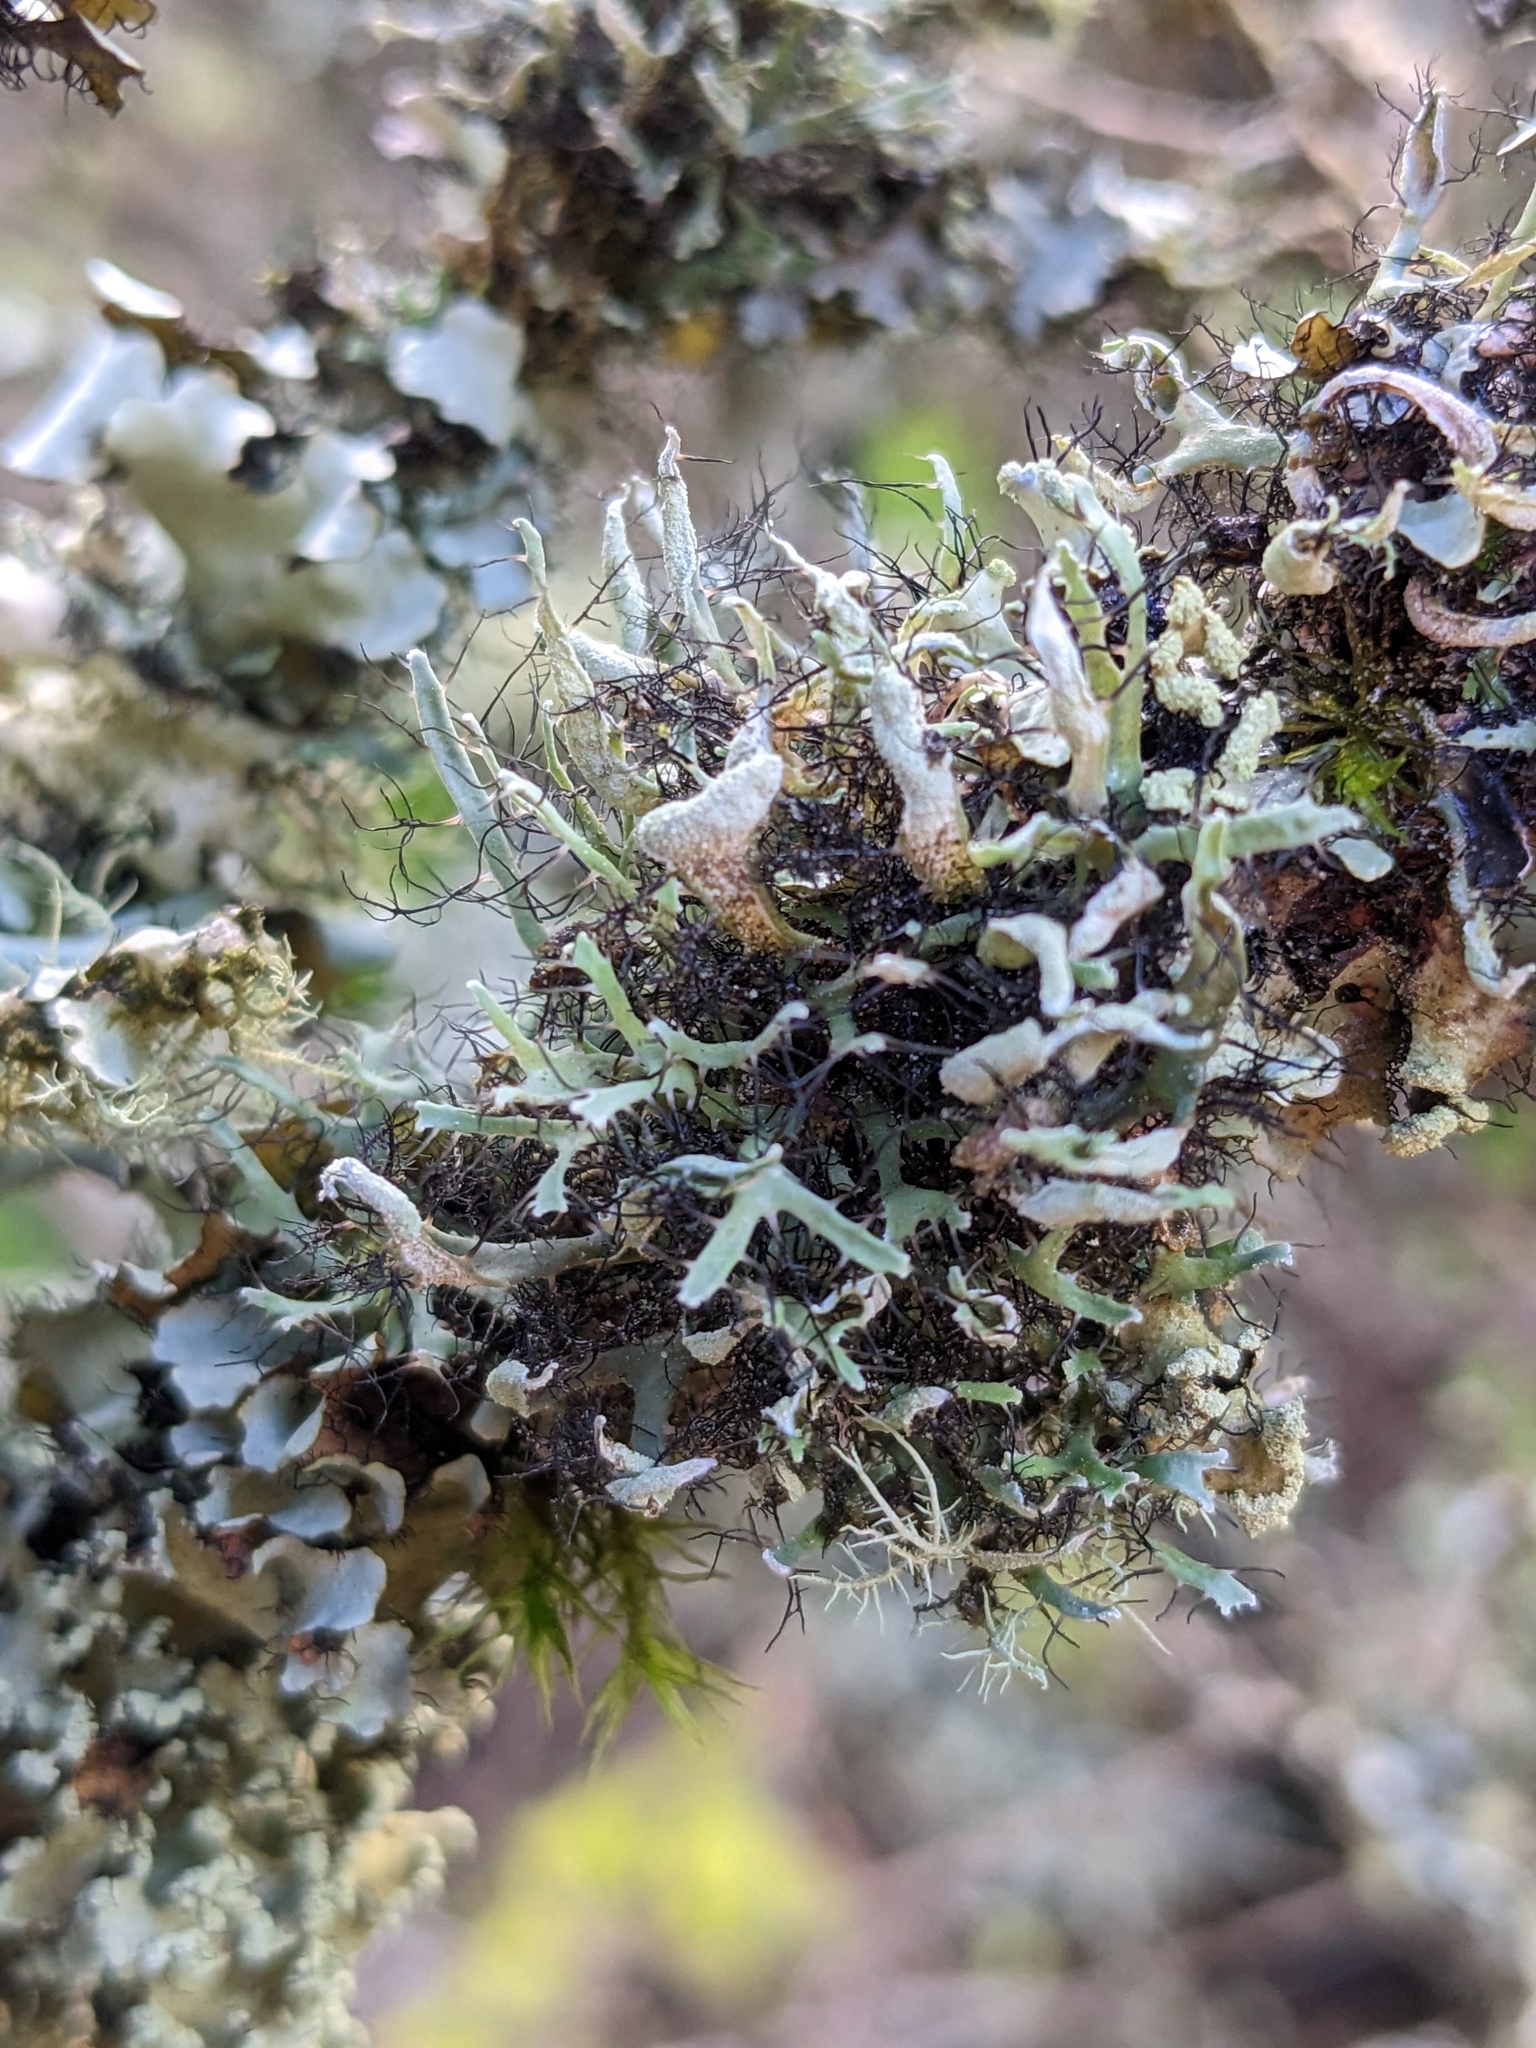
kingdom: Fungi
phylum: Ascomycota
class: Lecanoromycetes
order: Caliciales
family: Physciaceae
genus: Leucodermia
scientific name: Leucodermia leucomelos
